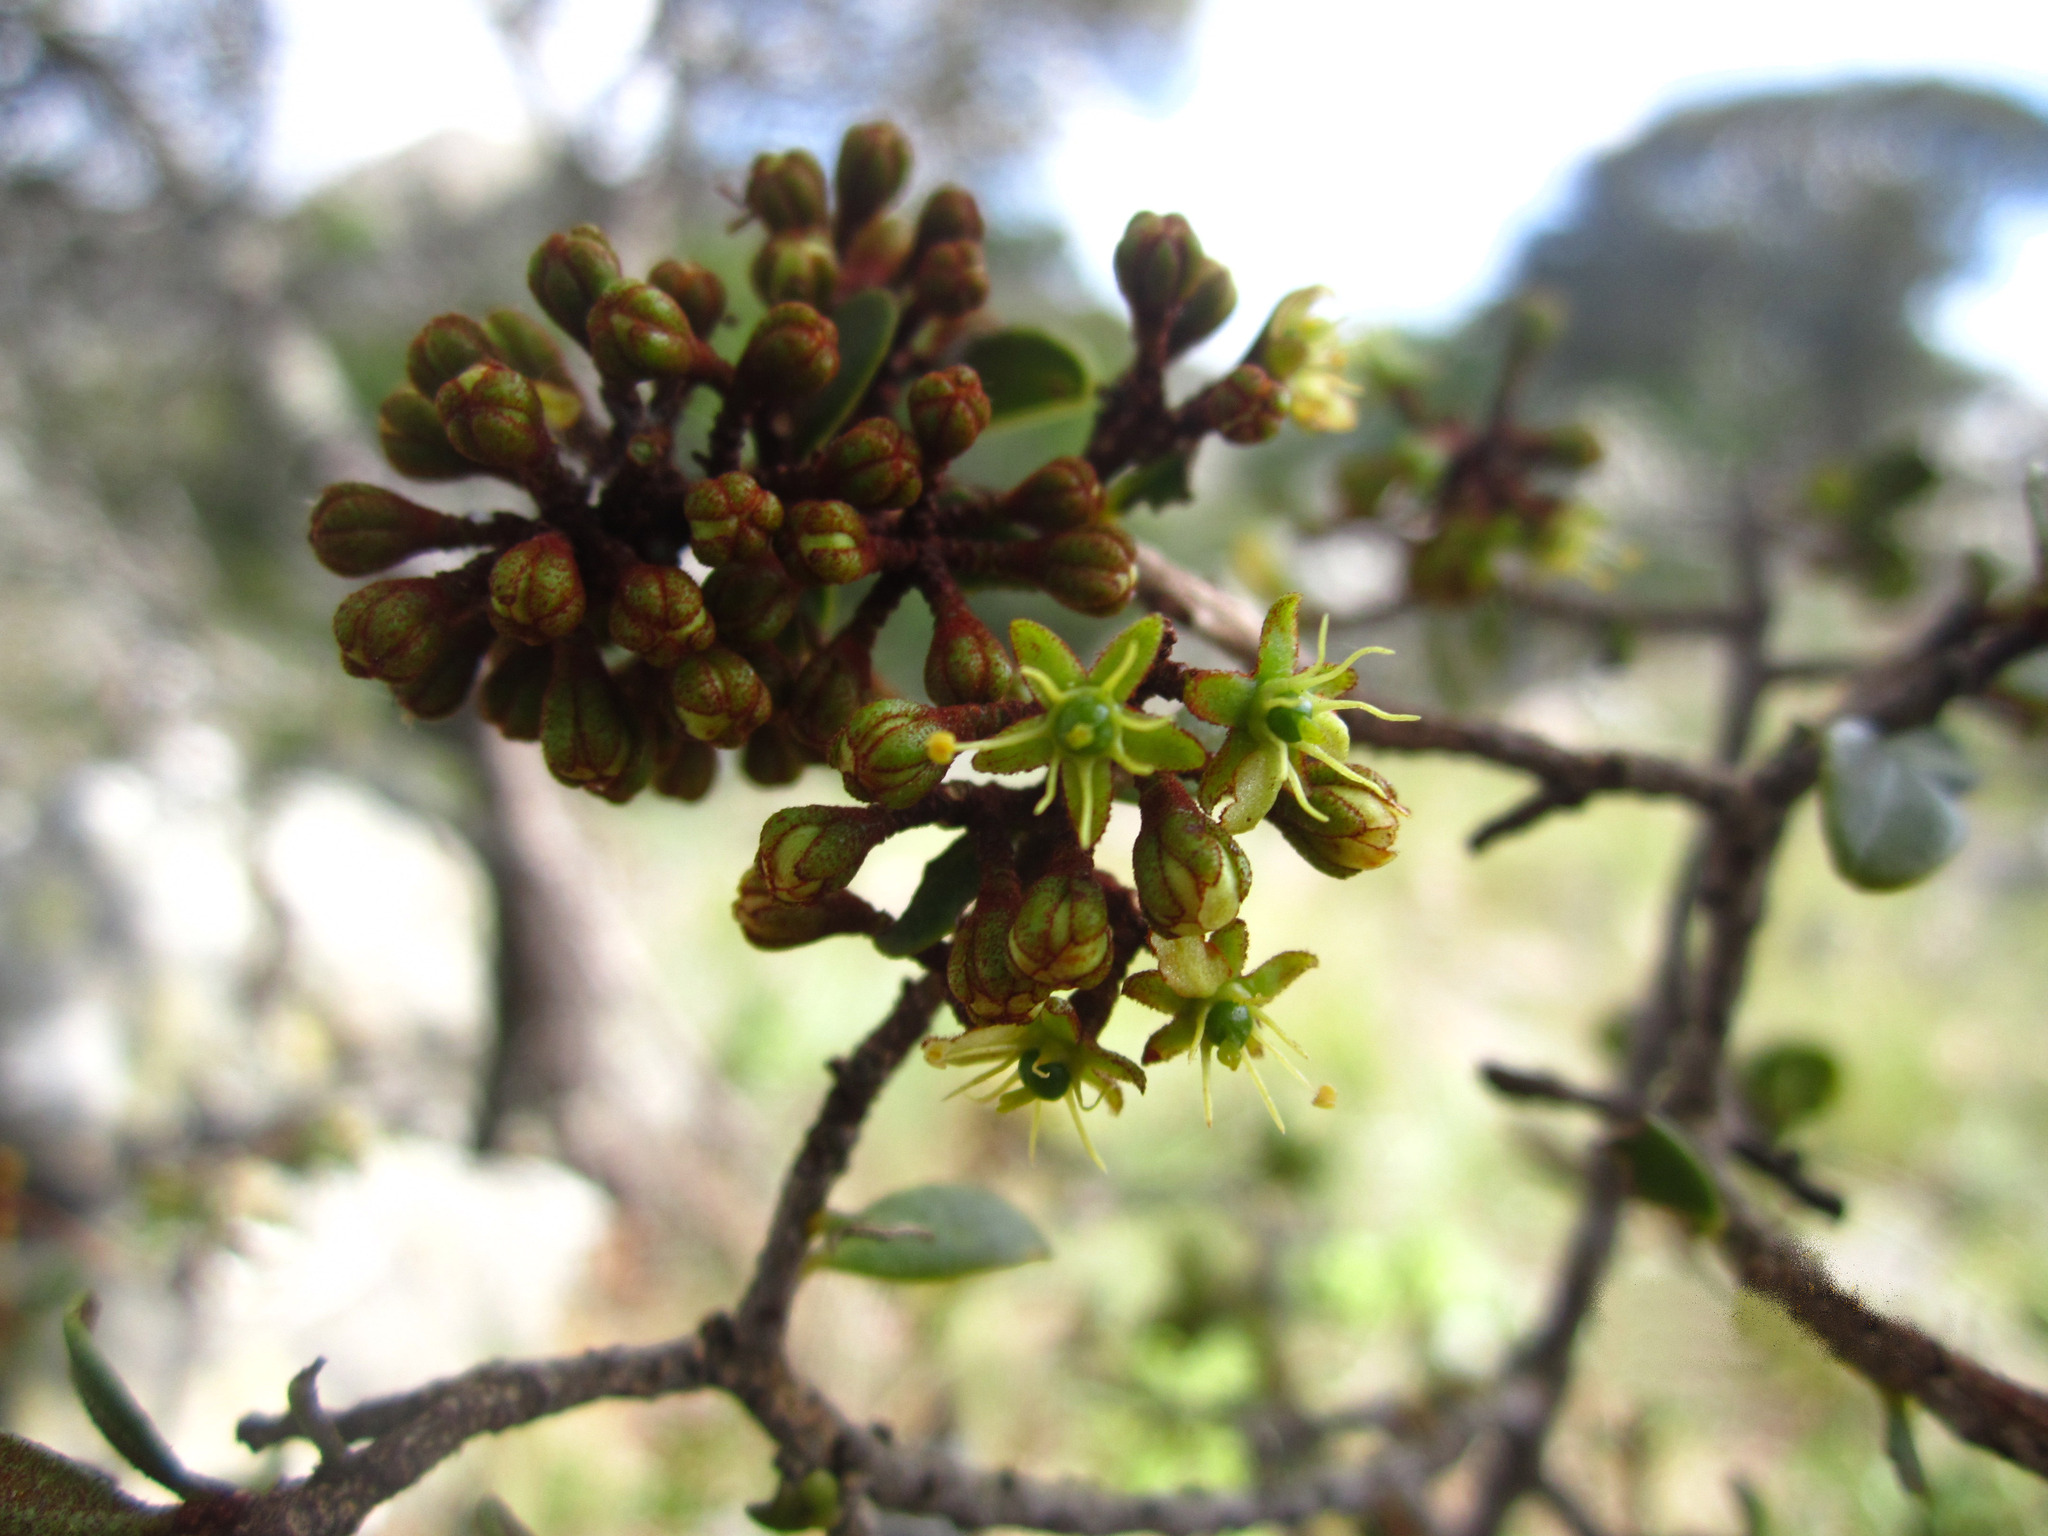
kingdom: Plantae
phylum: Tracheophyta
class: Magnoliopsida
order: Caryophyllales
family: Asteropeiaceae
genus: Asteropeia
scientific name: Asteropeia densiflora
